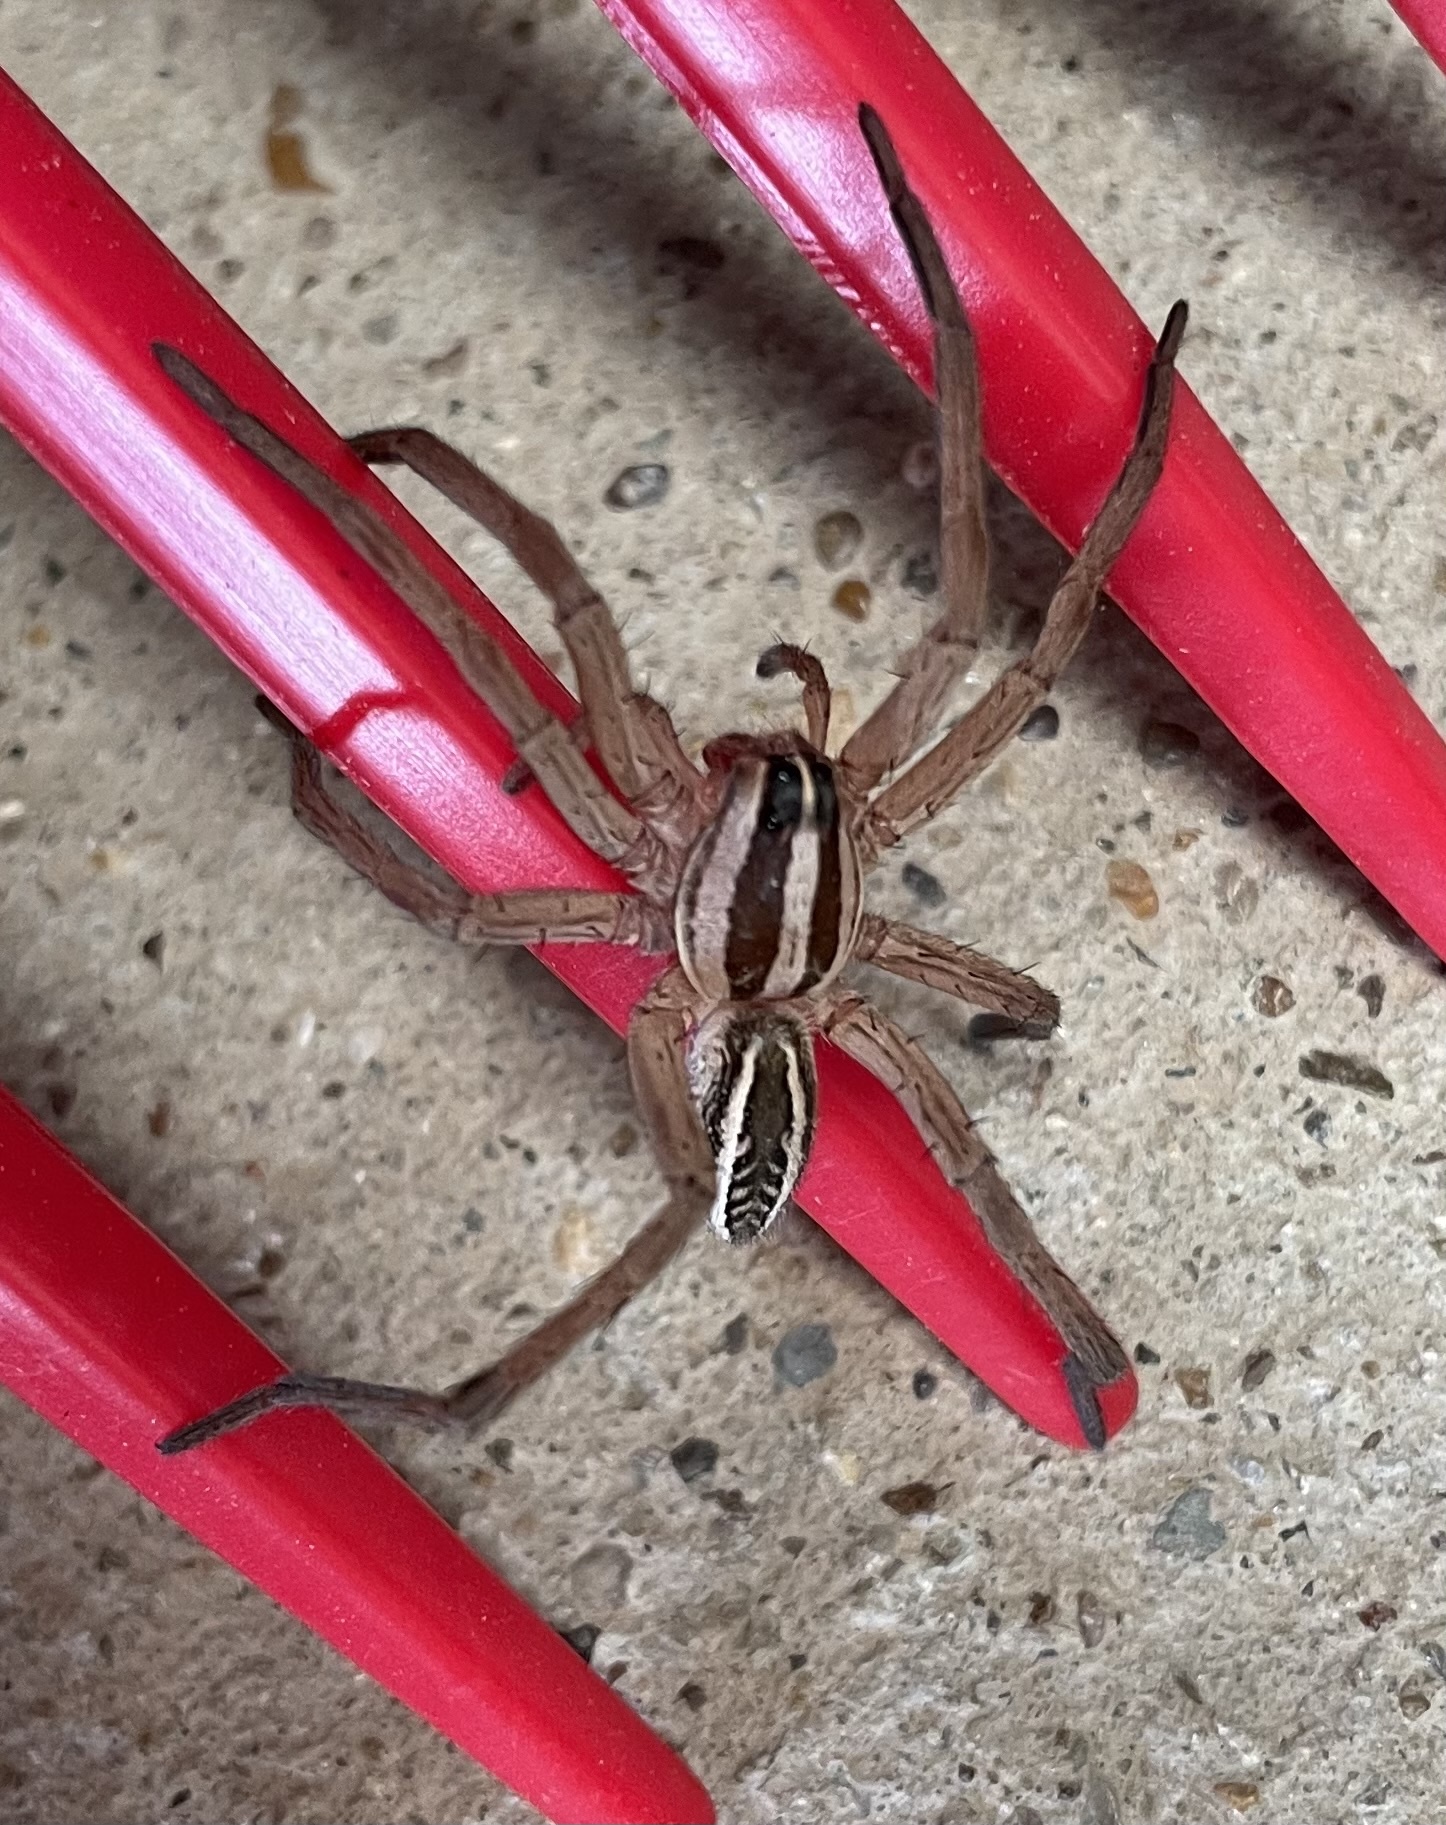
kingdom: Animalia
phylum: Arthropoda
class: Arachnida
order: Araneae
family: Lycosidae
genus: Rabidosa
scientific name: Rabidosa rabida
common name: Rabid wolf spider
